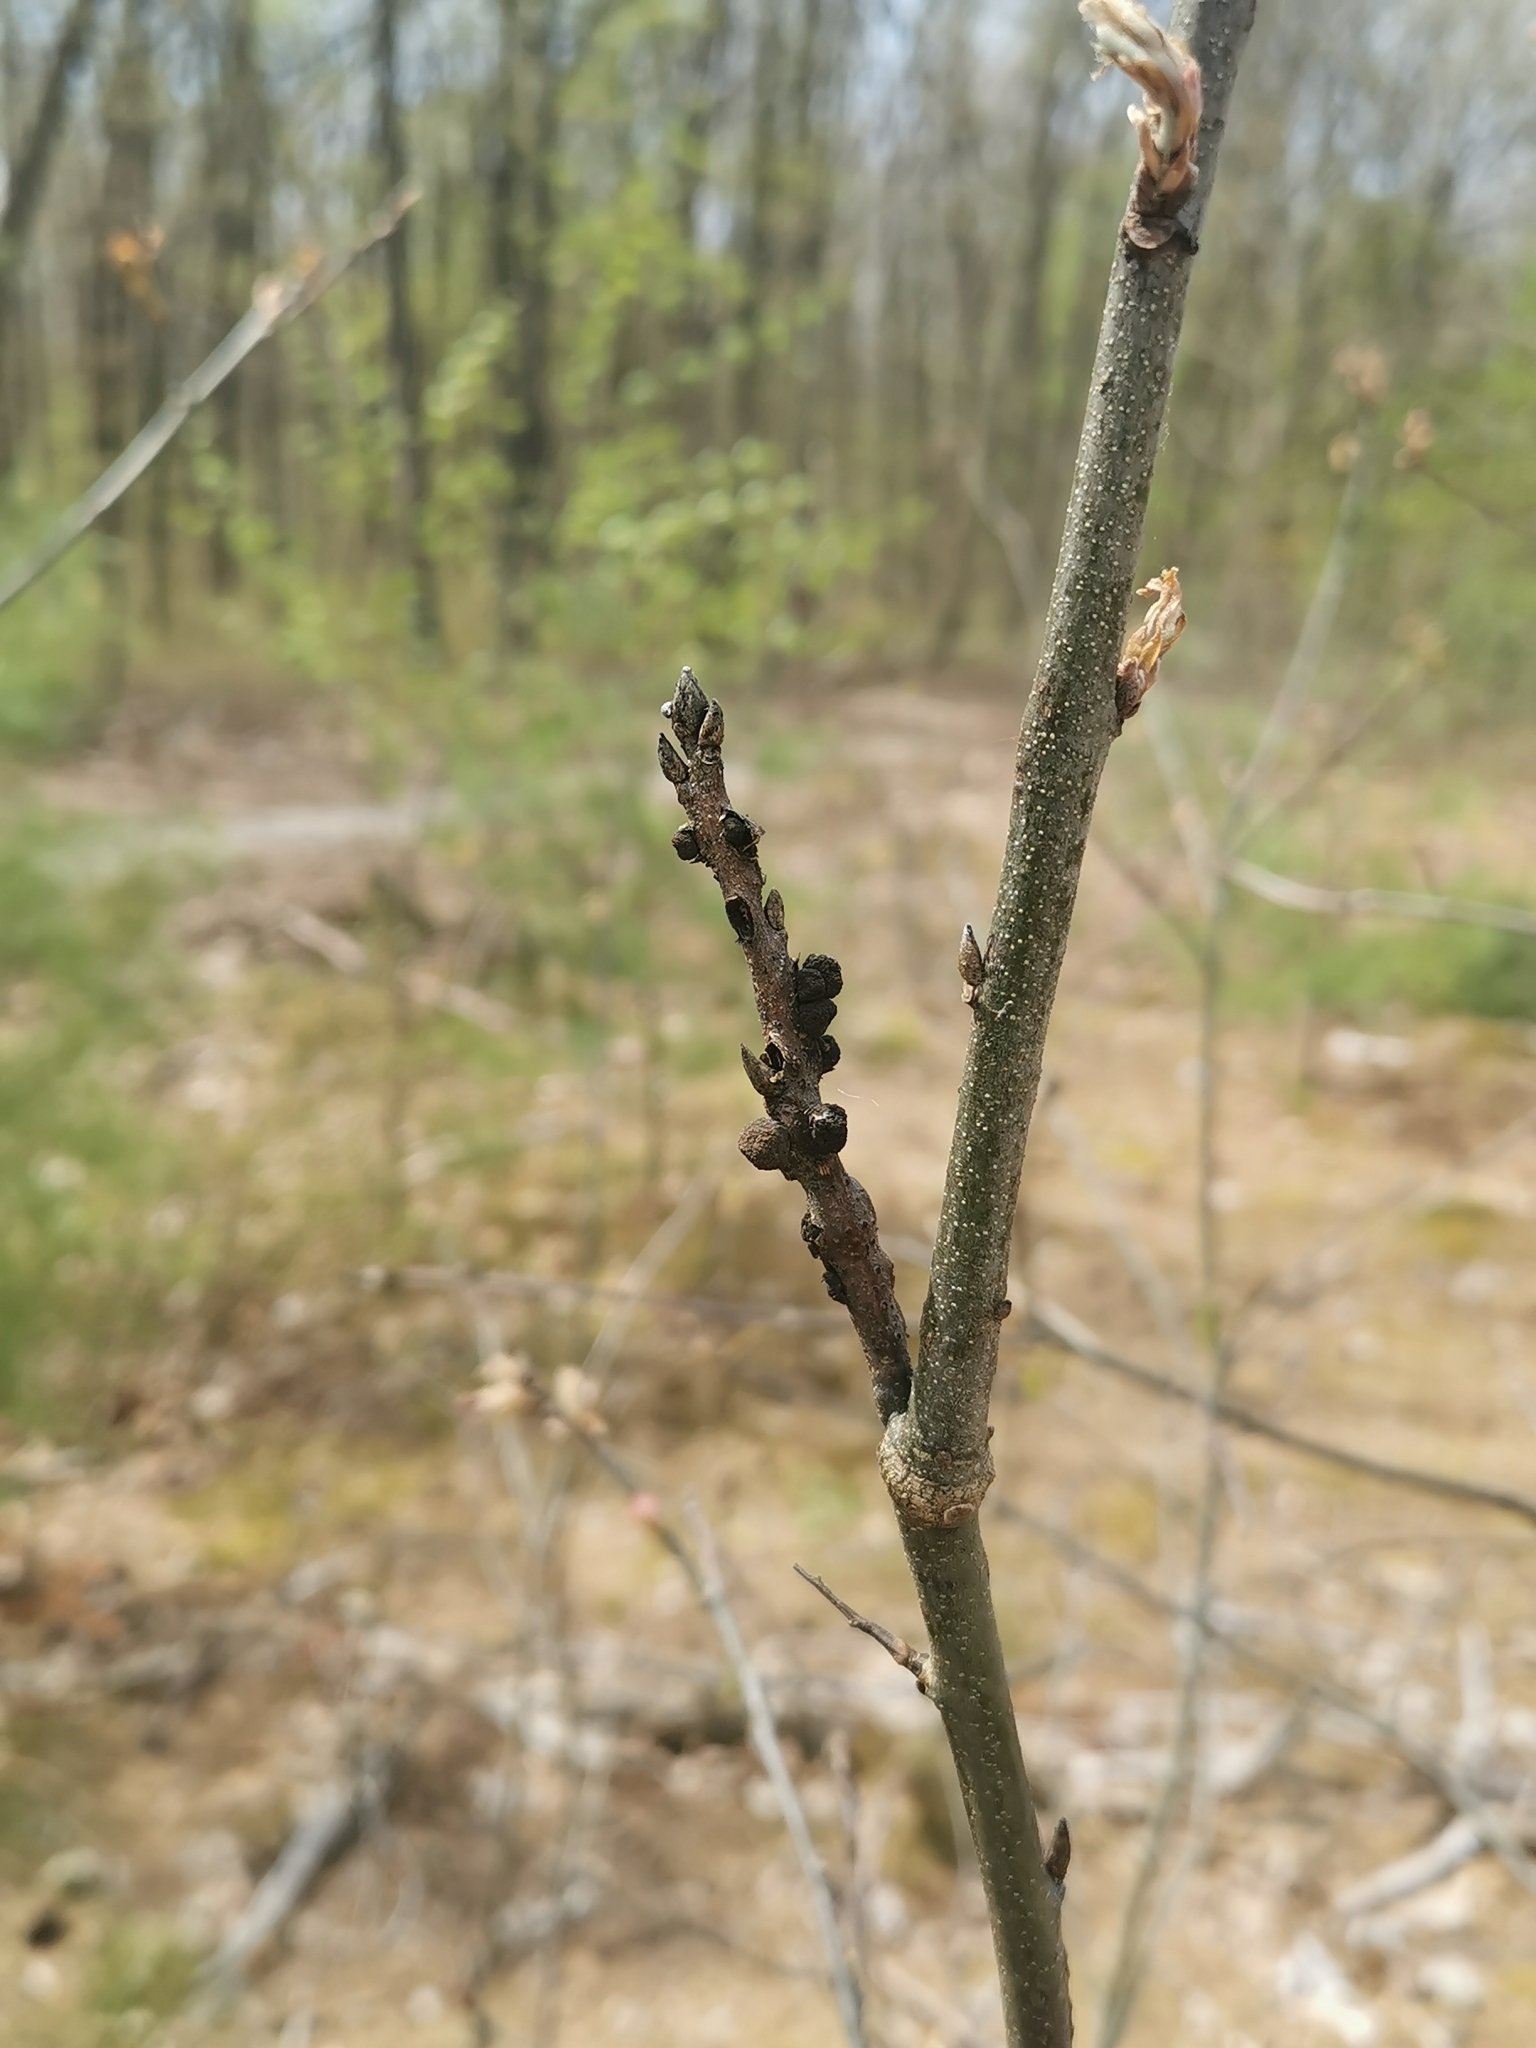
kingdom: Animalia
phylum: Arthropoda
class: Insecta
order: Hymenoptera
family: Cynipidae
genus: Callirhytis
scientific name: Callirhytis
